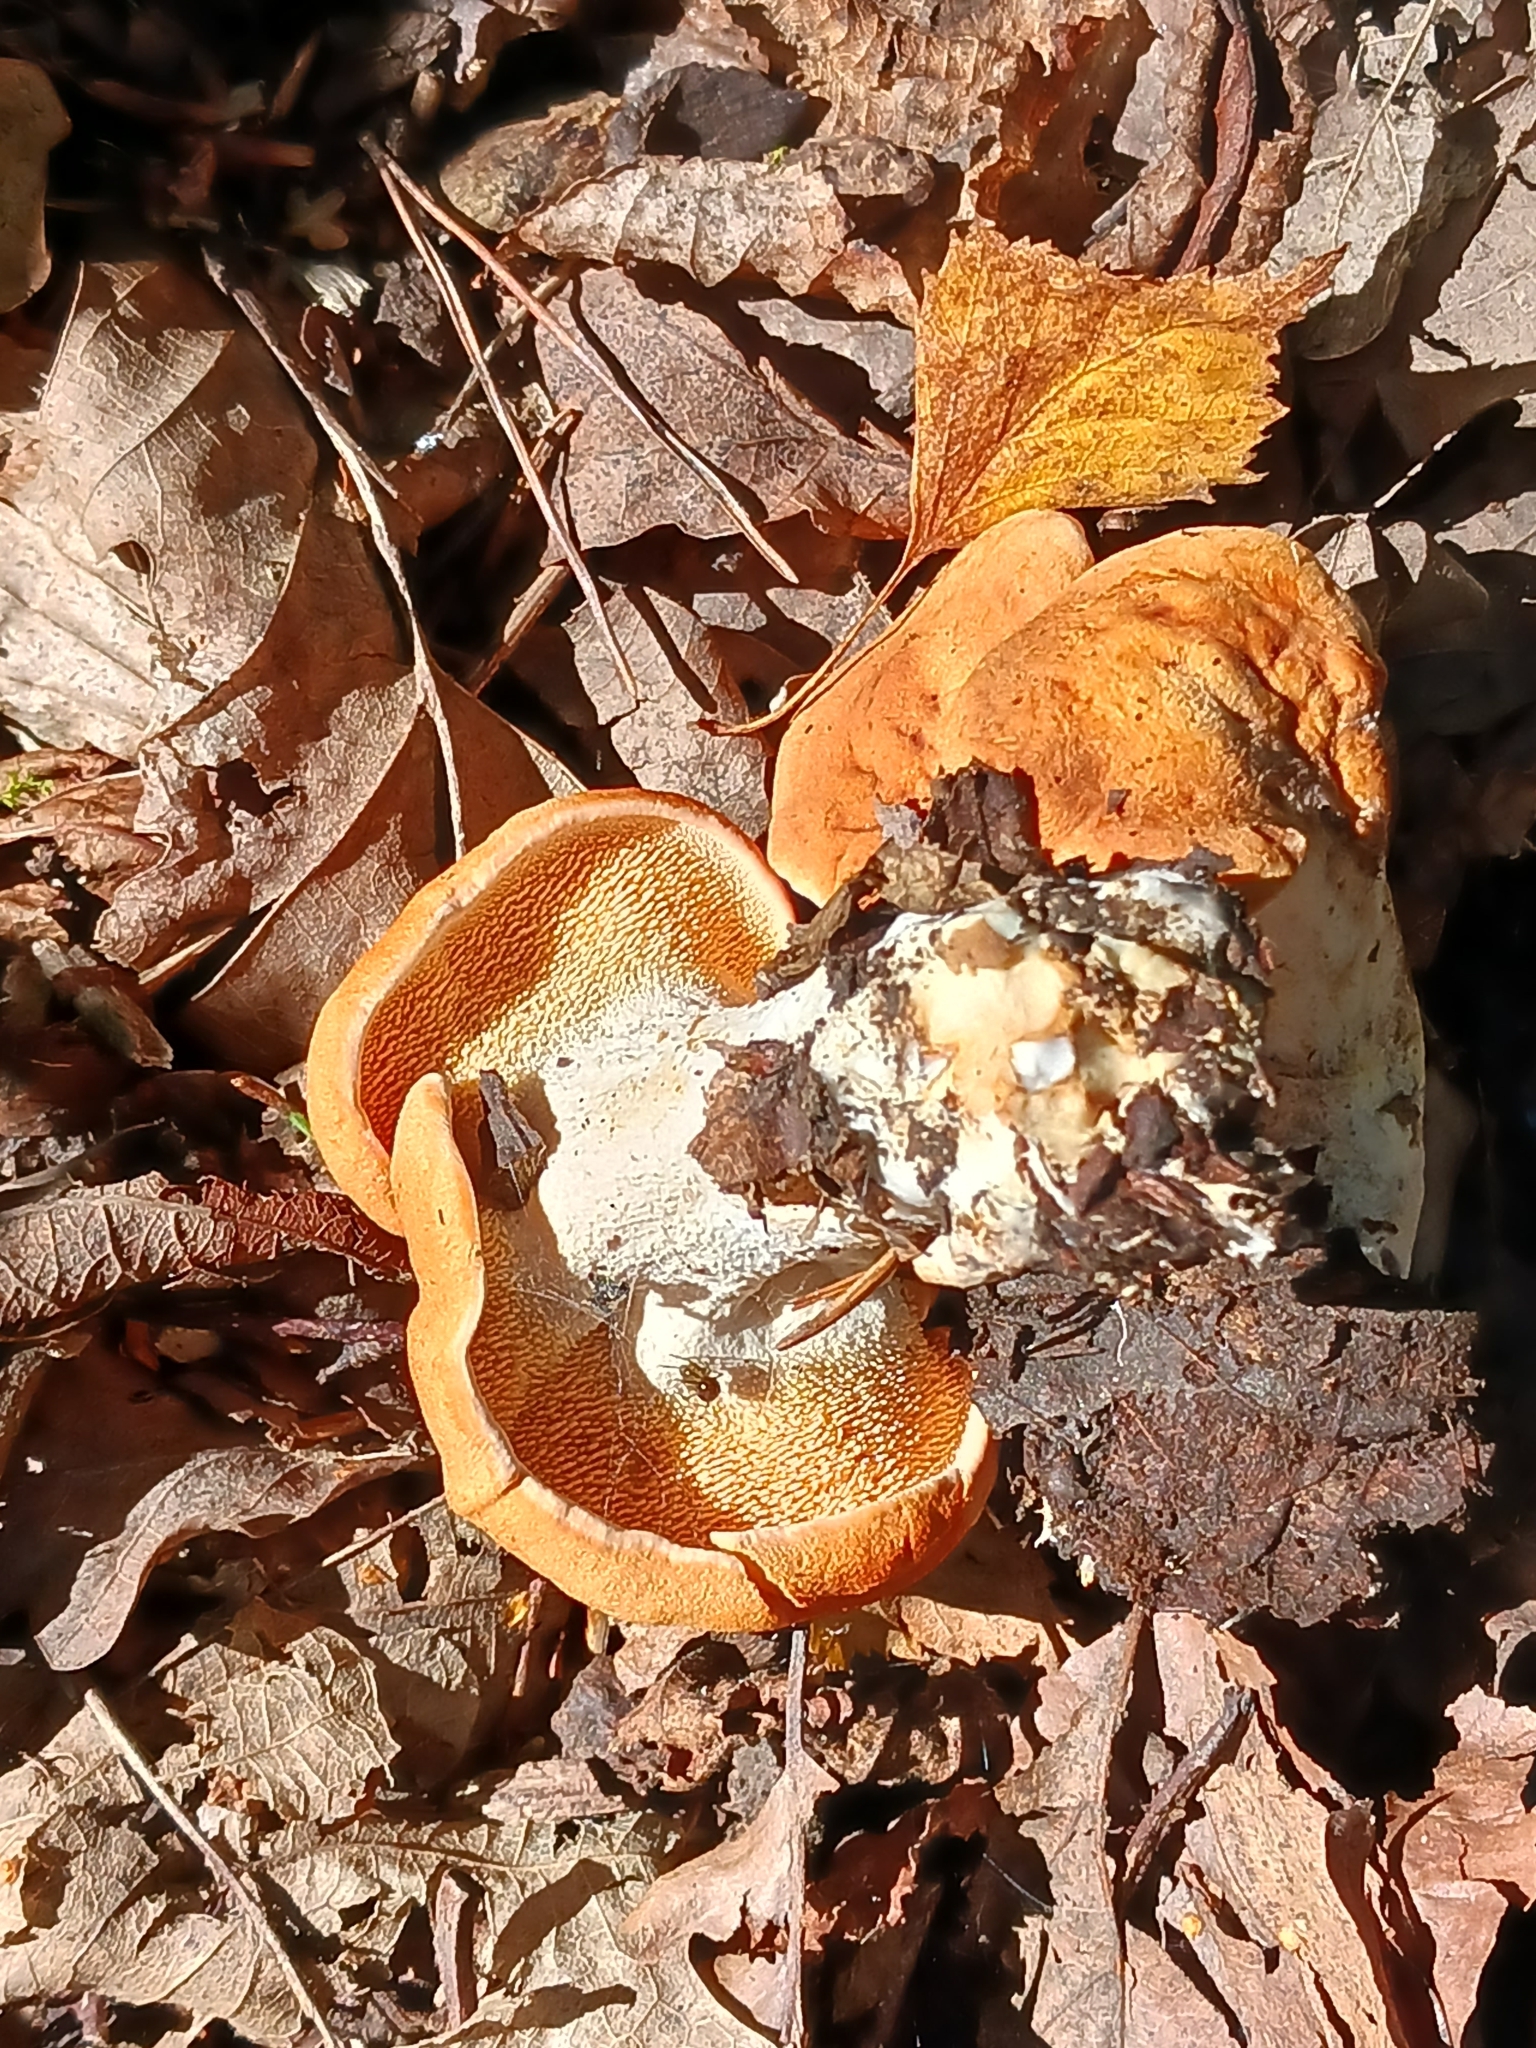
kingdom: Fungi
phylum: Basidiomycota
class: Agaricomycetes
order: Cantharellales
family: Hydnaceae
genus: Hydnum
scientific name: Hydnum rufescens
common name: Terracotta hedgehog
